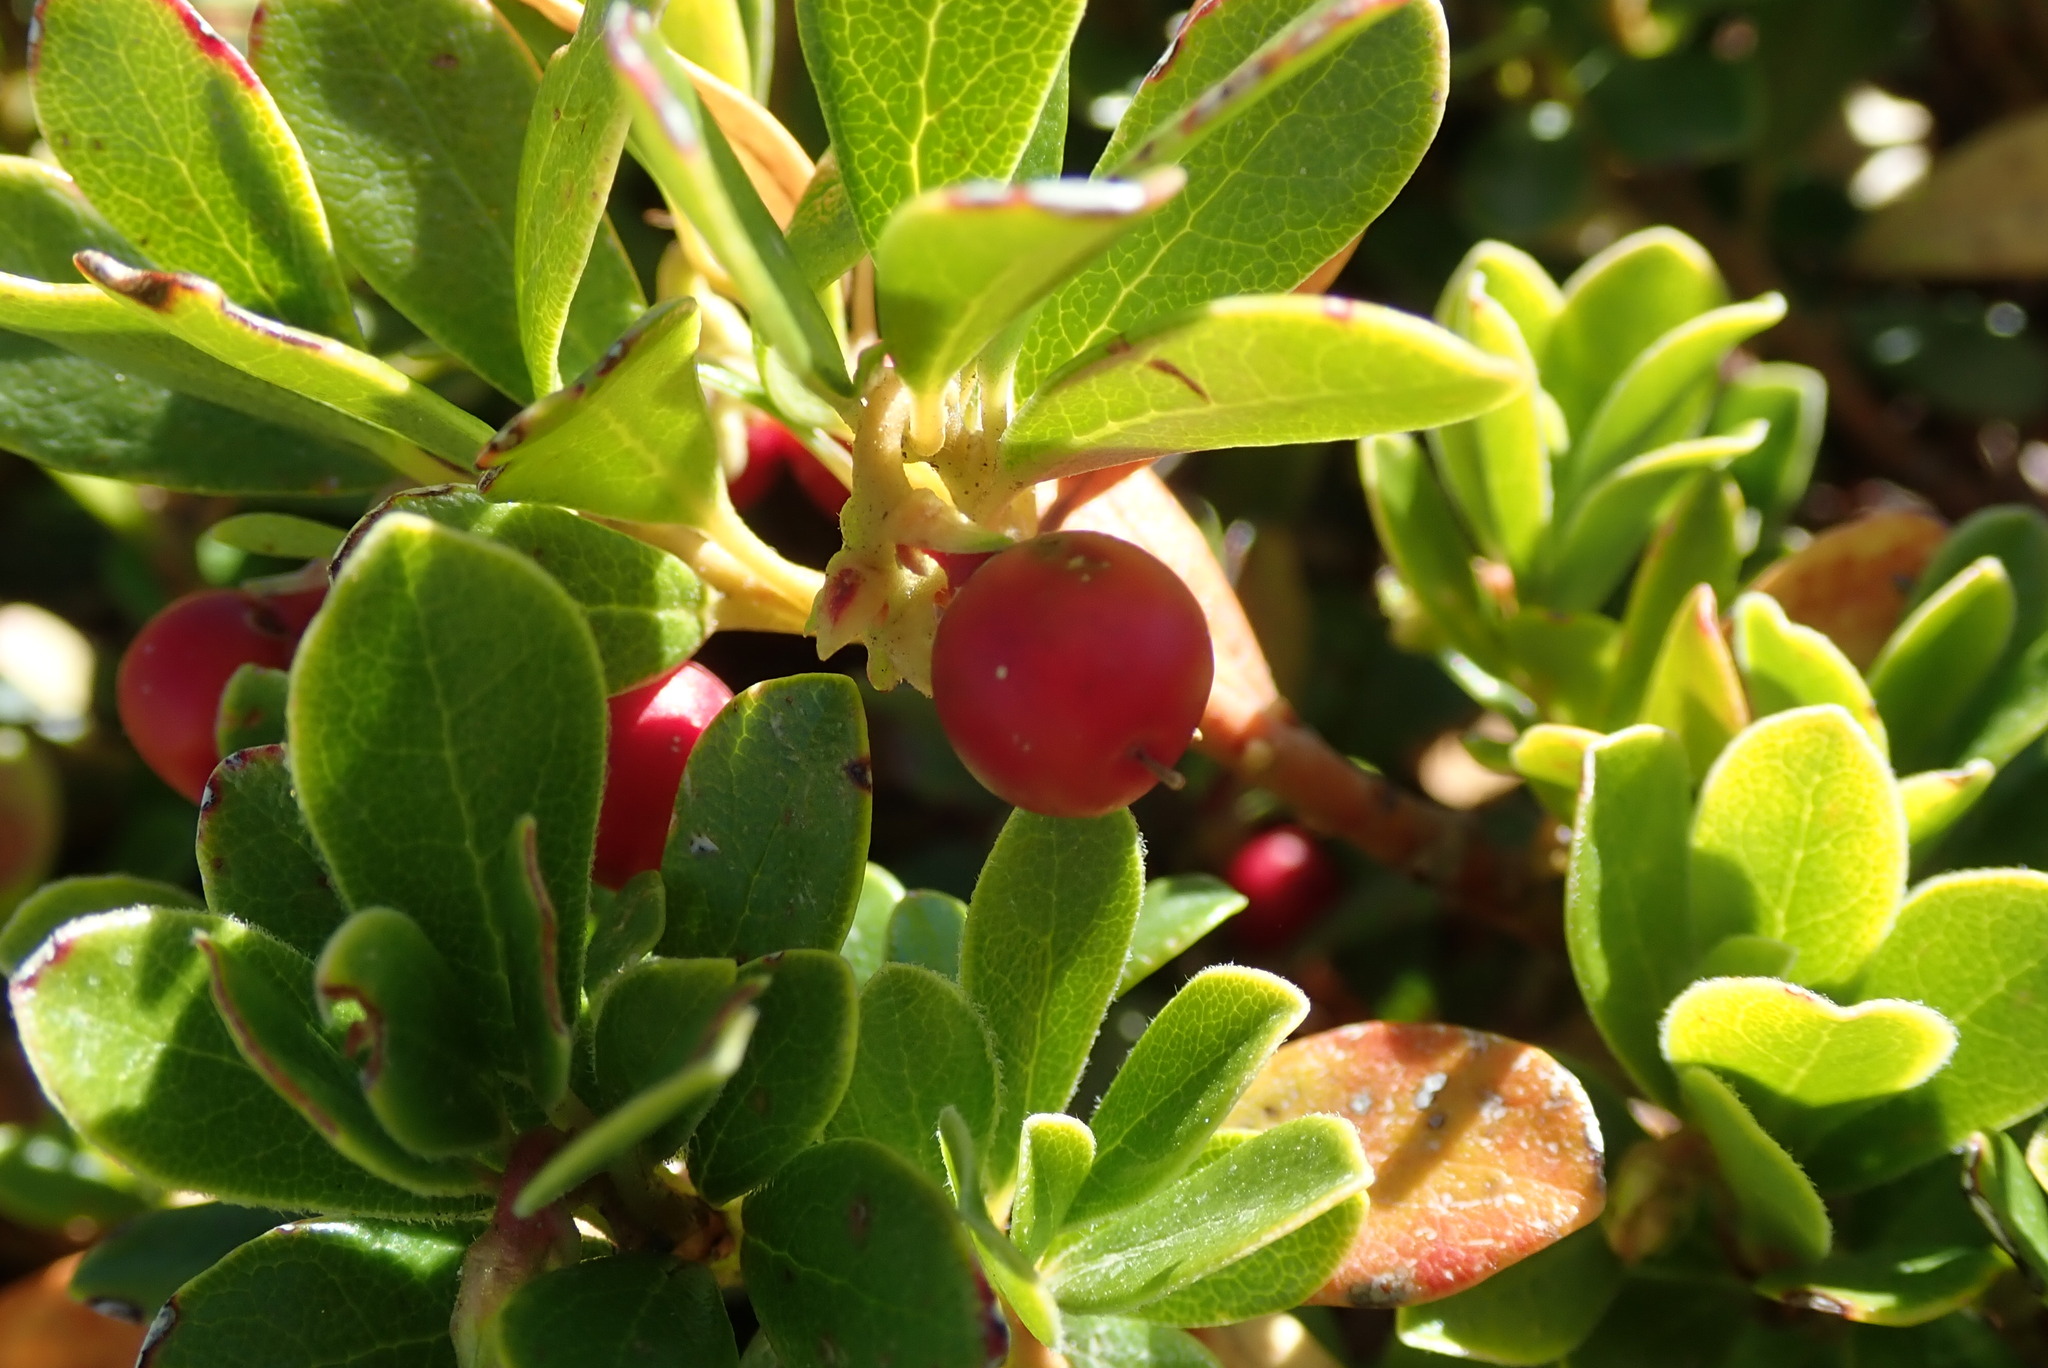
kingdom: Plantae
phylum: Tracheophyta
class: Magnoliopsida
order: Ericales
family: Ericaceae
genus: Arctostaphylos
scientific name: Arctostaphylos uva-ursi
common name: Bearberry
